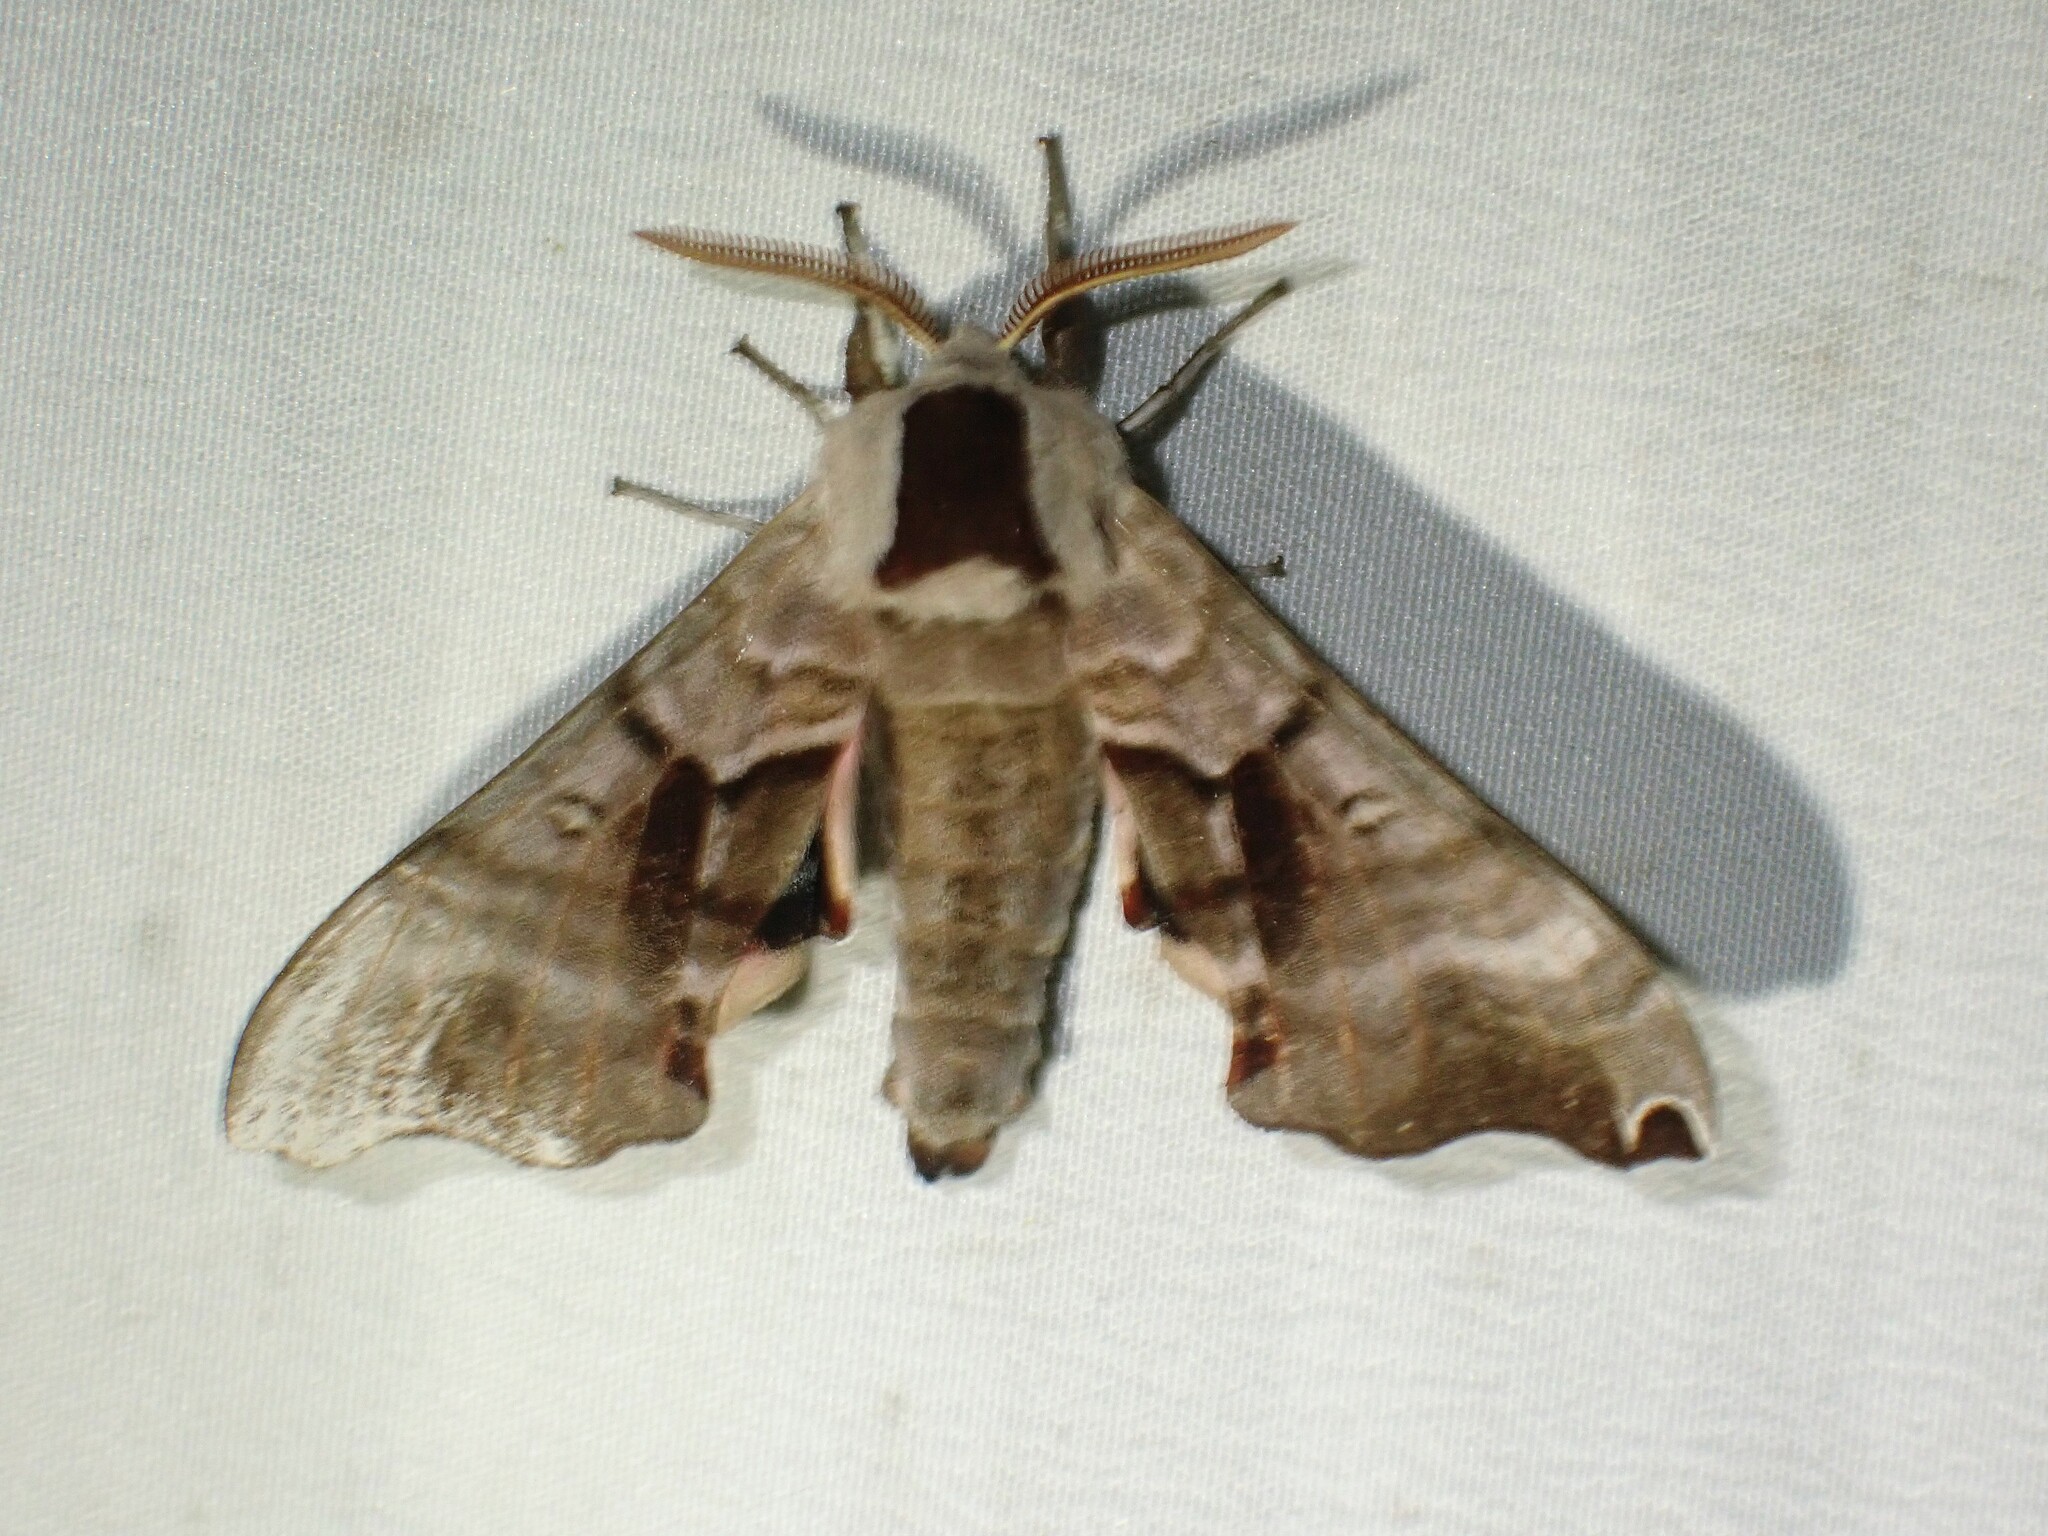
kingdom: Animalia
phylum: Arthropoda
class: Insecta
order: Lepidoptera
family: Sphingidae
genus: Smerinthus
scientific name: Smerinthus jamaicensis
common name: Twin spotted sphinx
